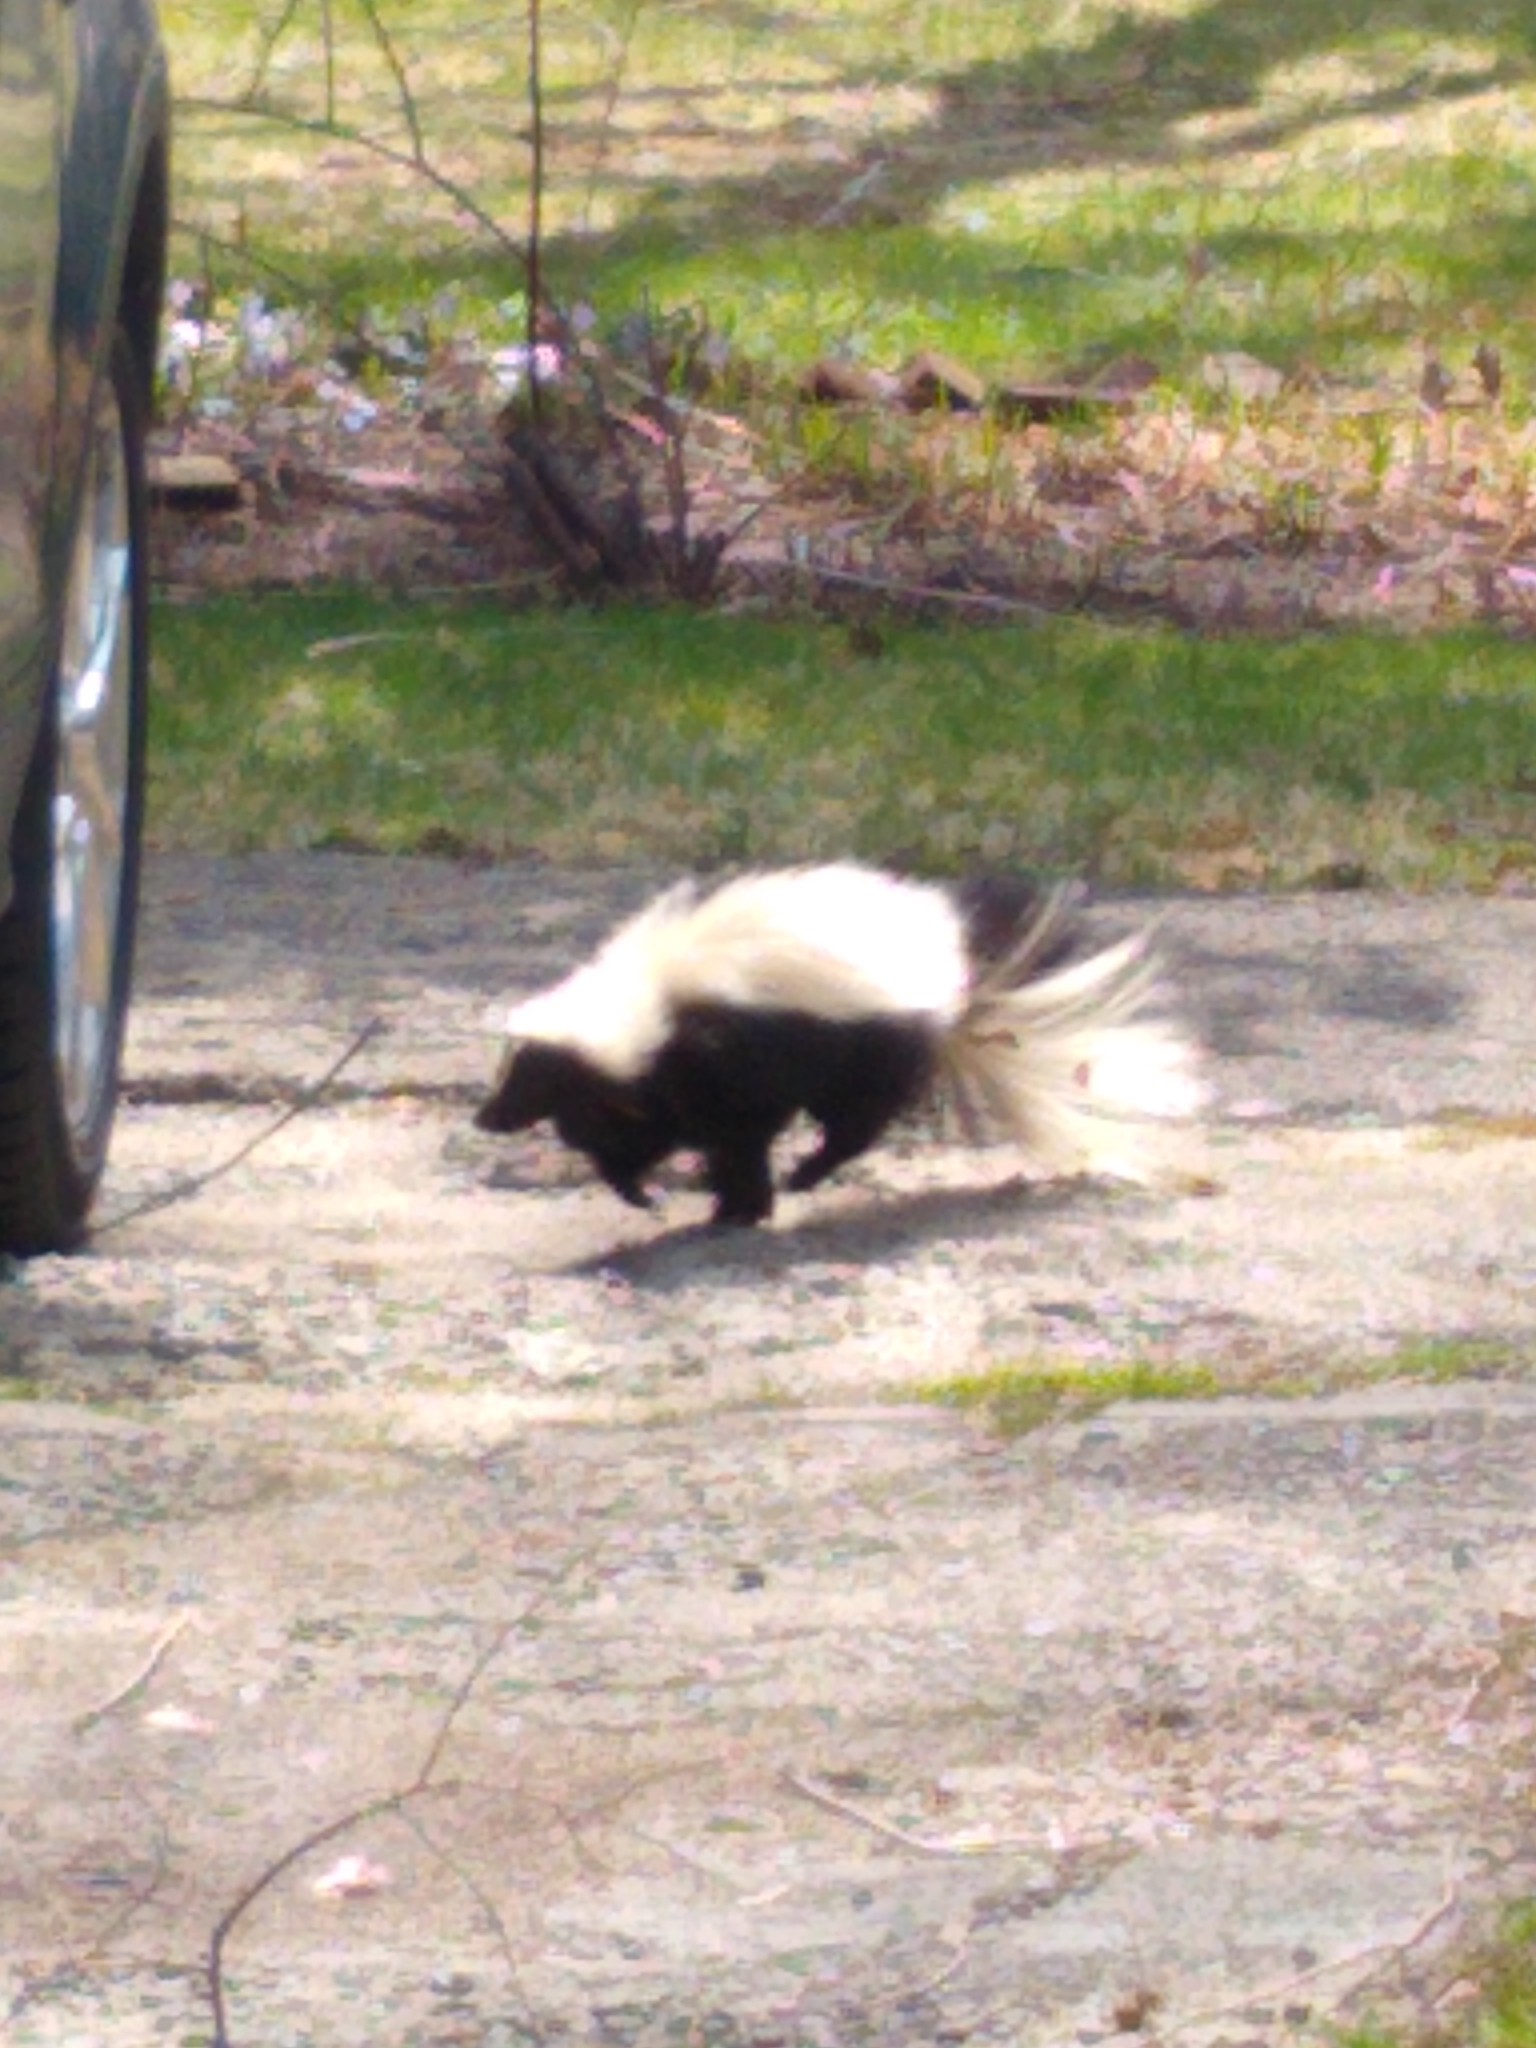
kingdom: Animalia
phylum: Chordata
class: Mammalia
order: Carnivora
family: Mephitidae
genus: Mephitis
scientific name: Mephitis mephitis
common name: Striped skunk
